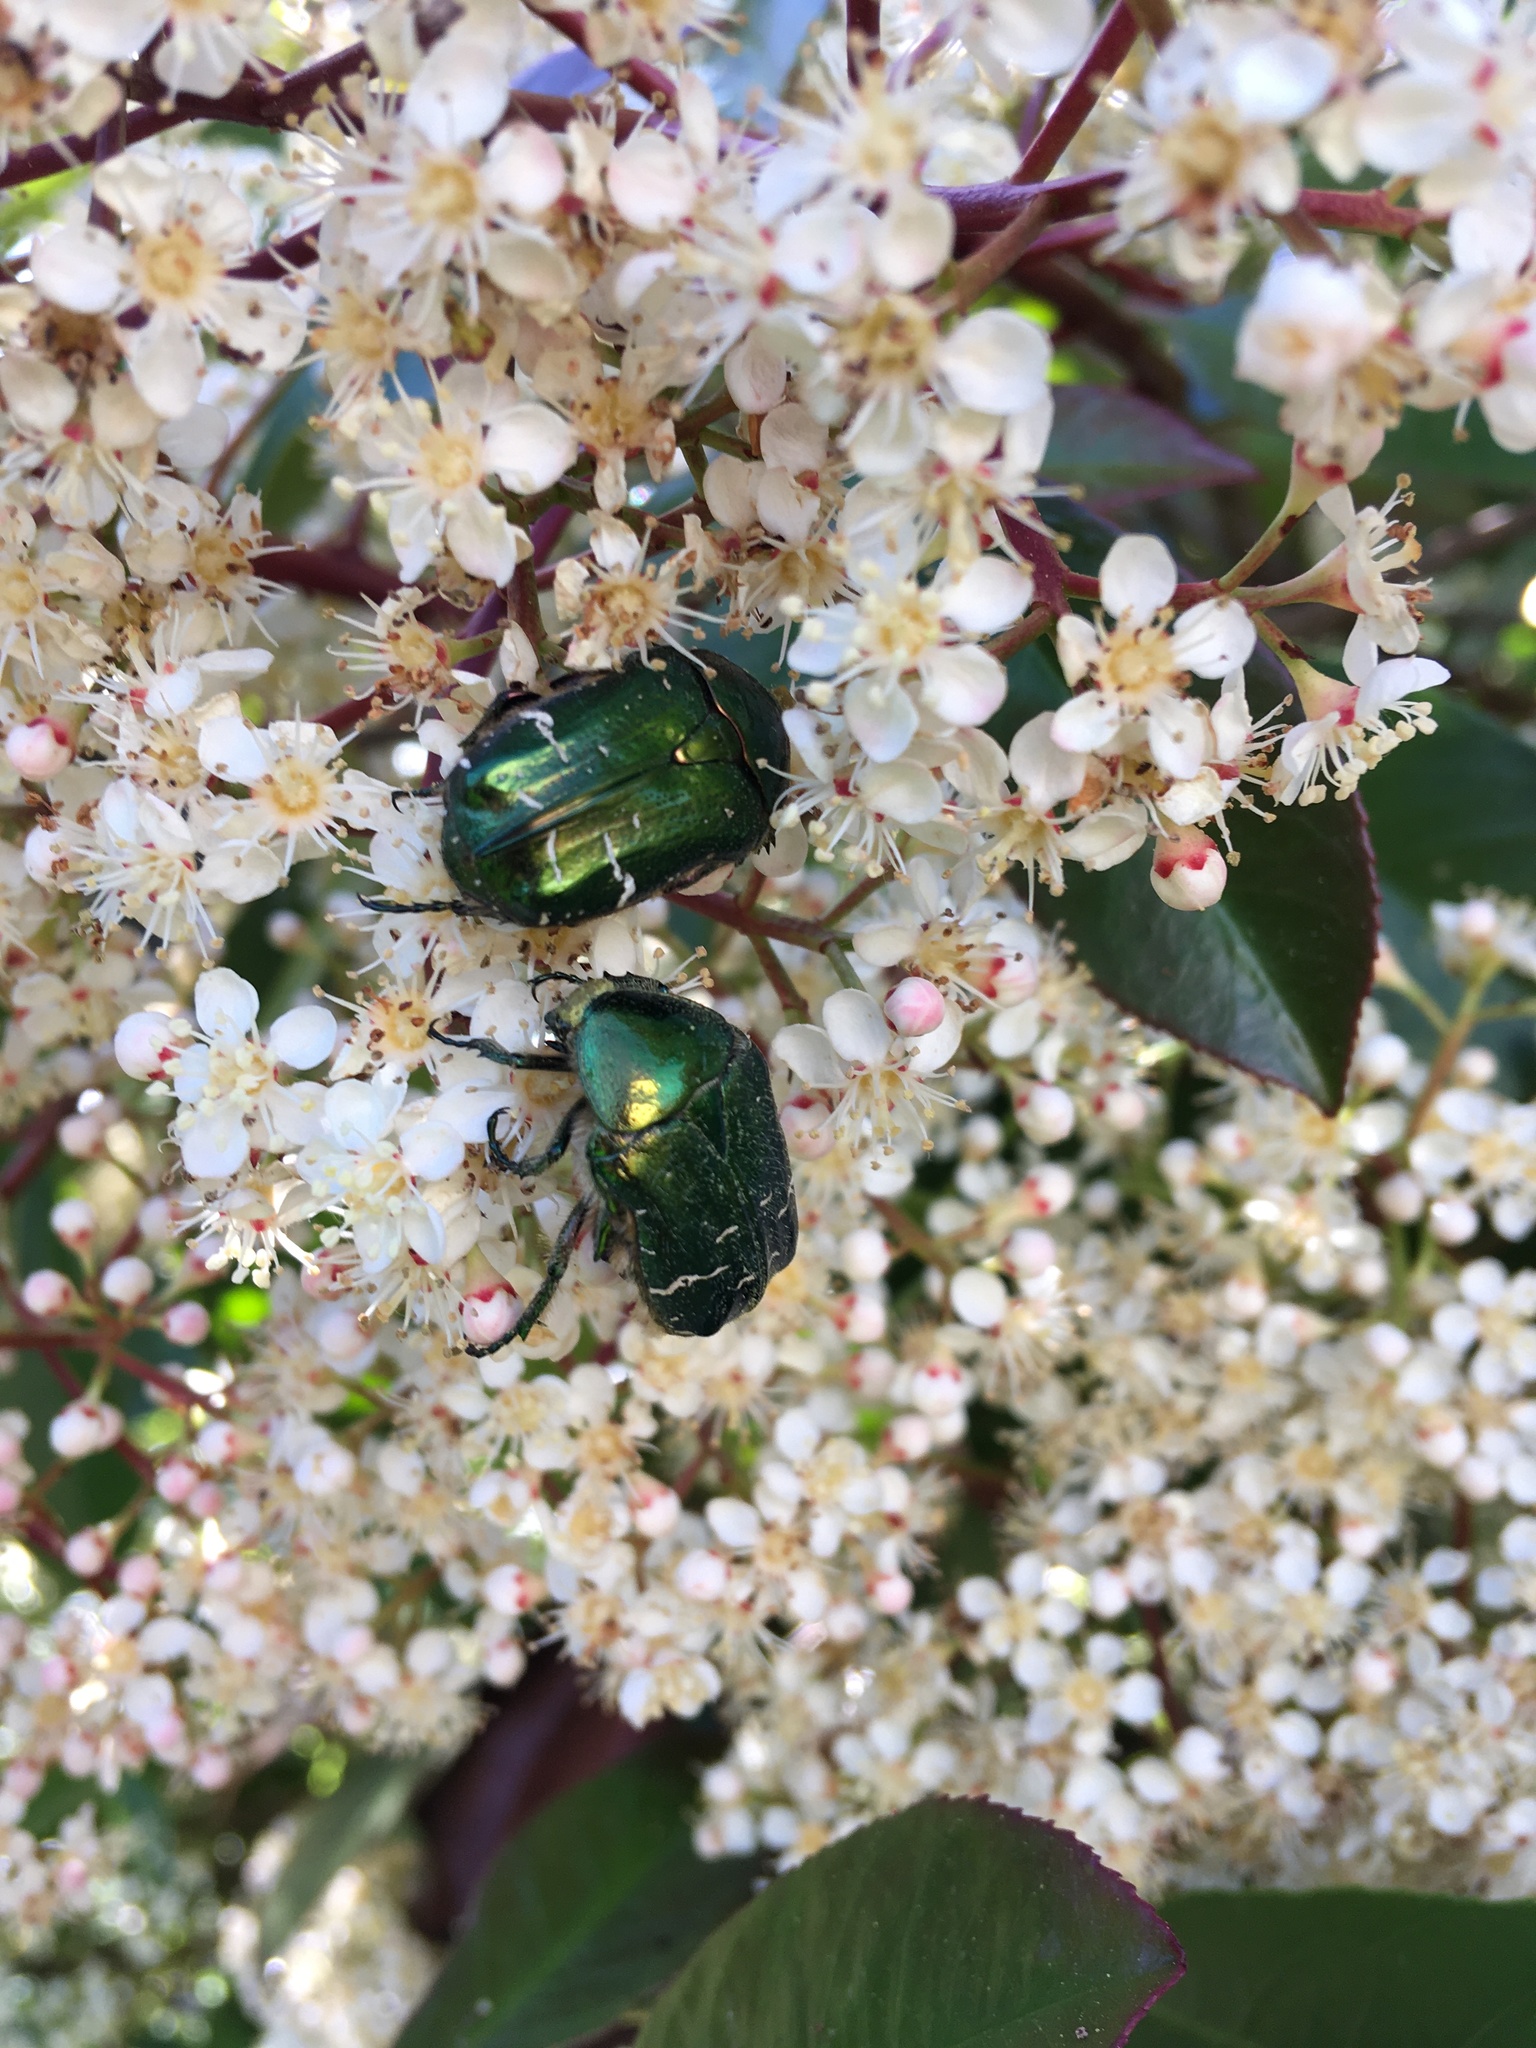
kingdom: Animalia
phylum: Arthropoda
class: Insecta
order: Coleoptera
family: Scarabaeidae
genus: Cetonia
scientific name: Cetonia aurata
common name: Rose chafer
